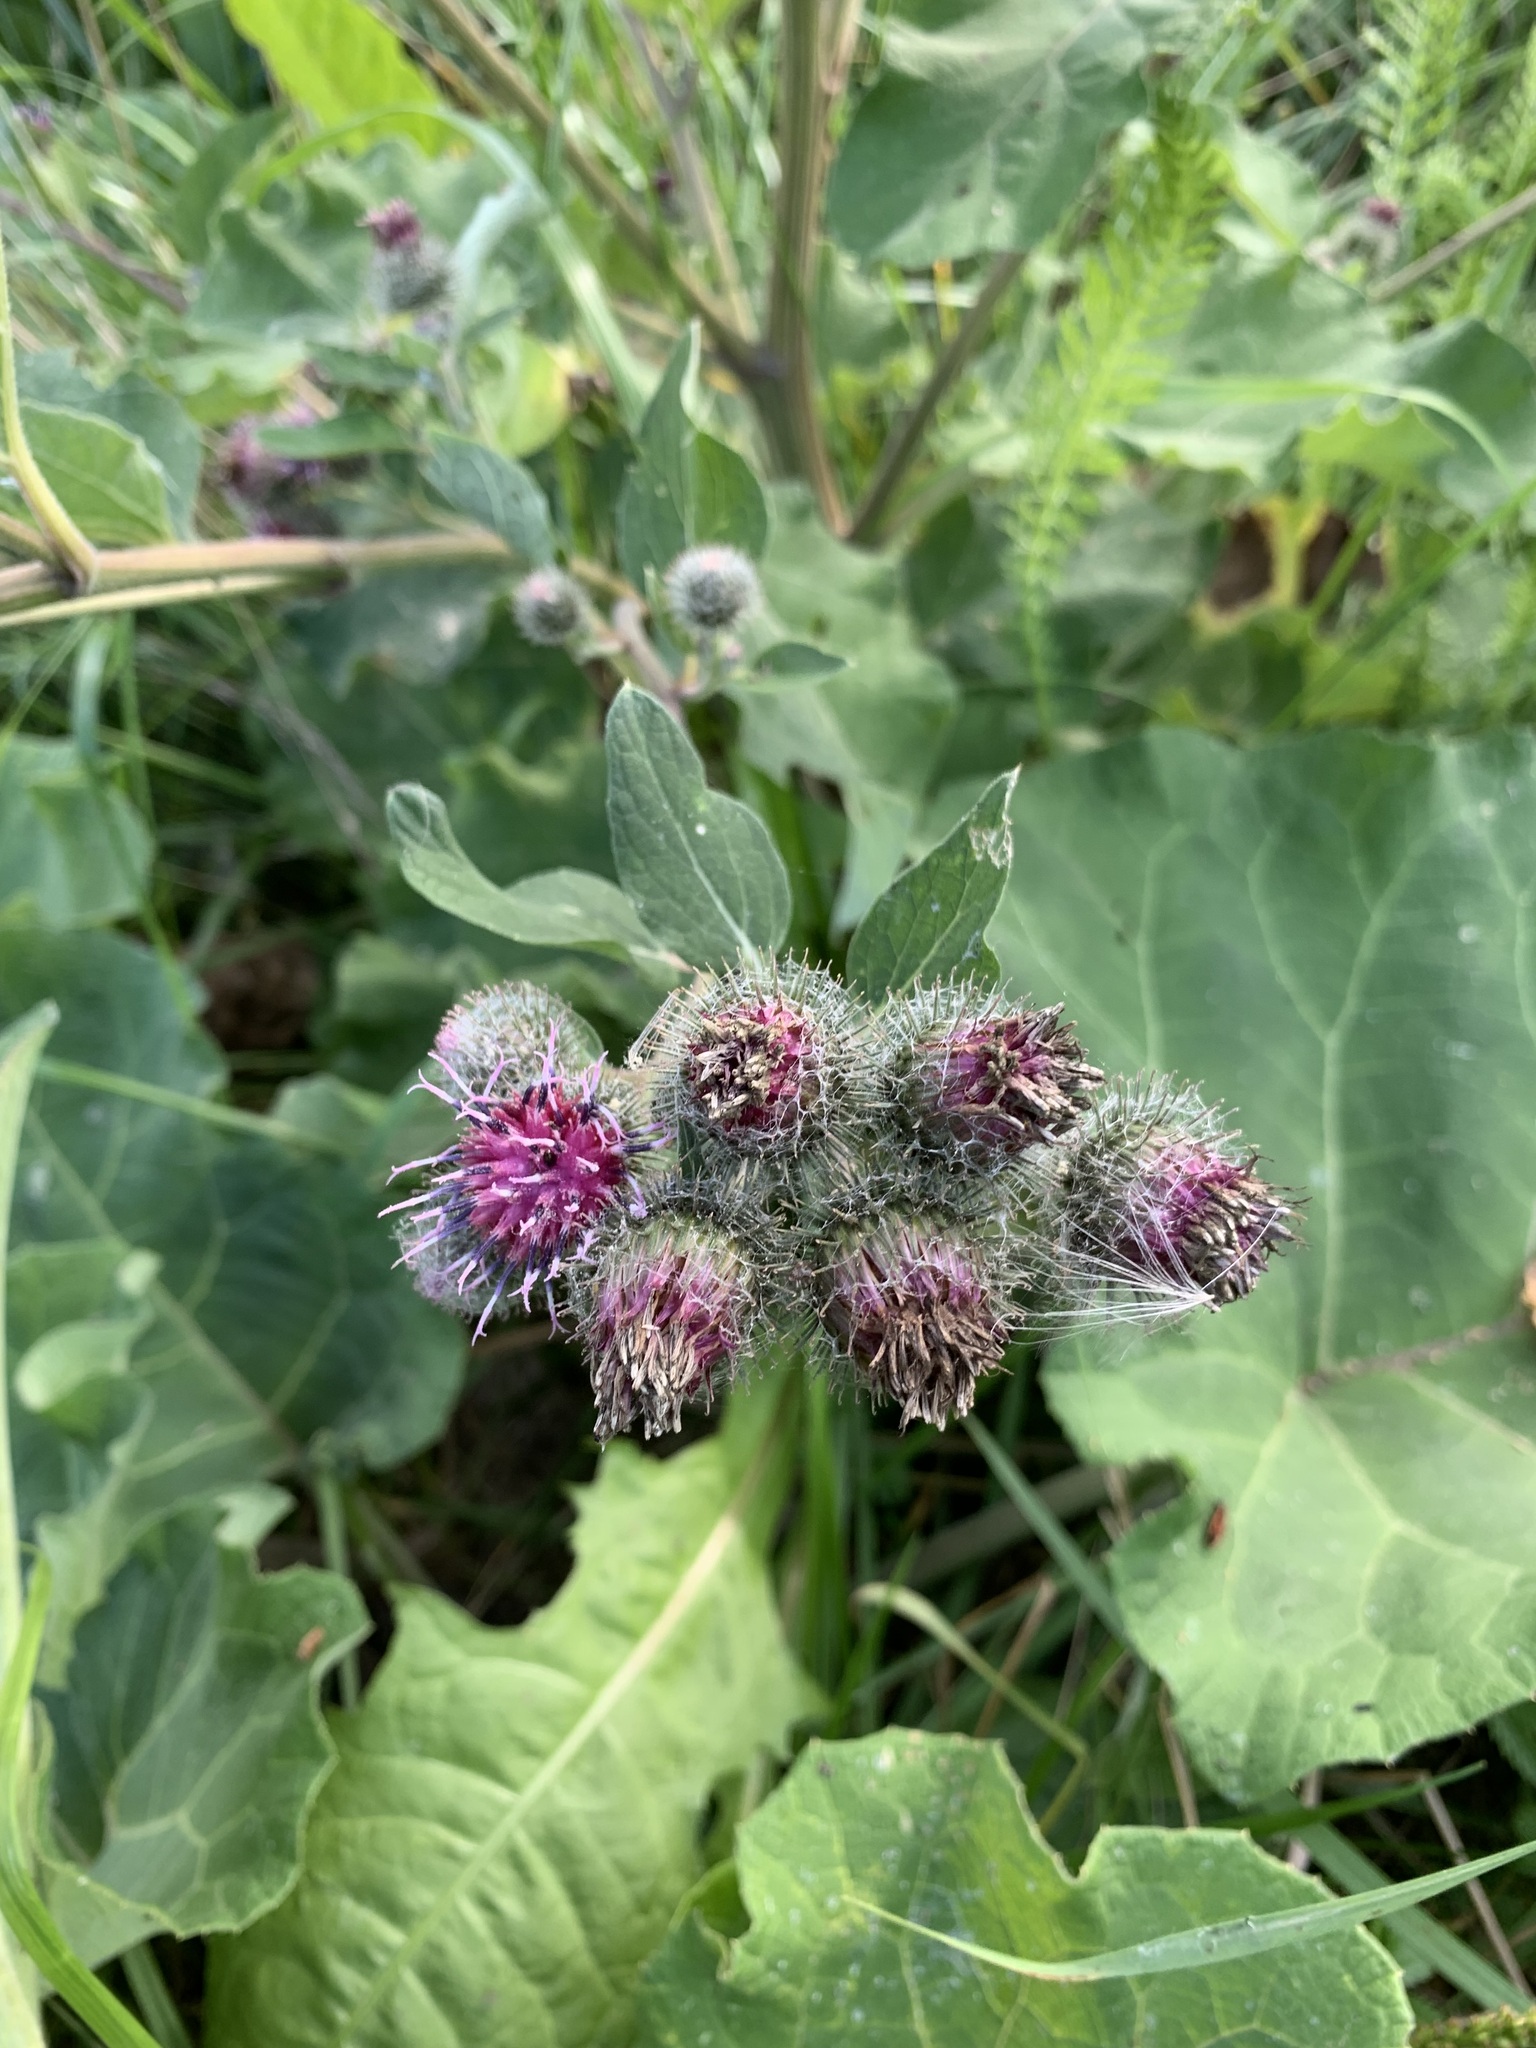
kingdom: Plantae
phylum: Tracheophyta
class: Magnoliopsida
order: Asterales
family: Asteraceae
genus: Arctium
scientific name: Arctium tomentosum
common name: Woolly burdock
